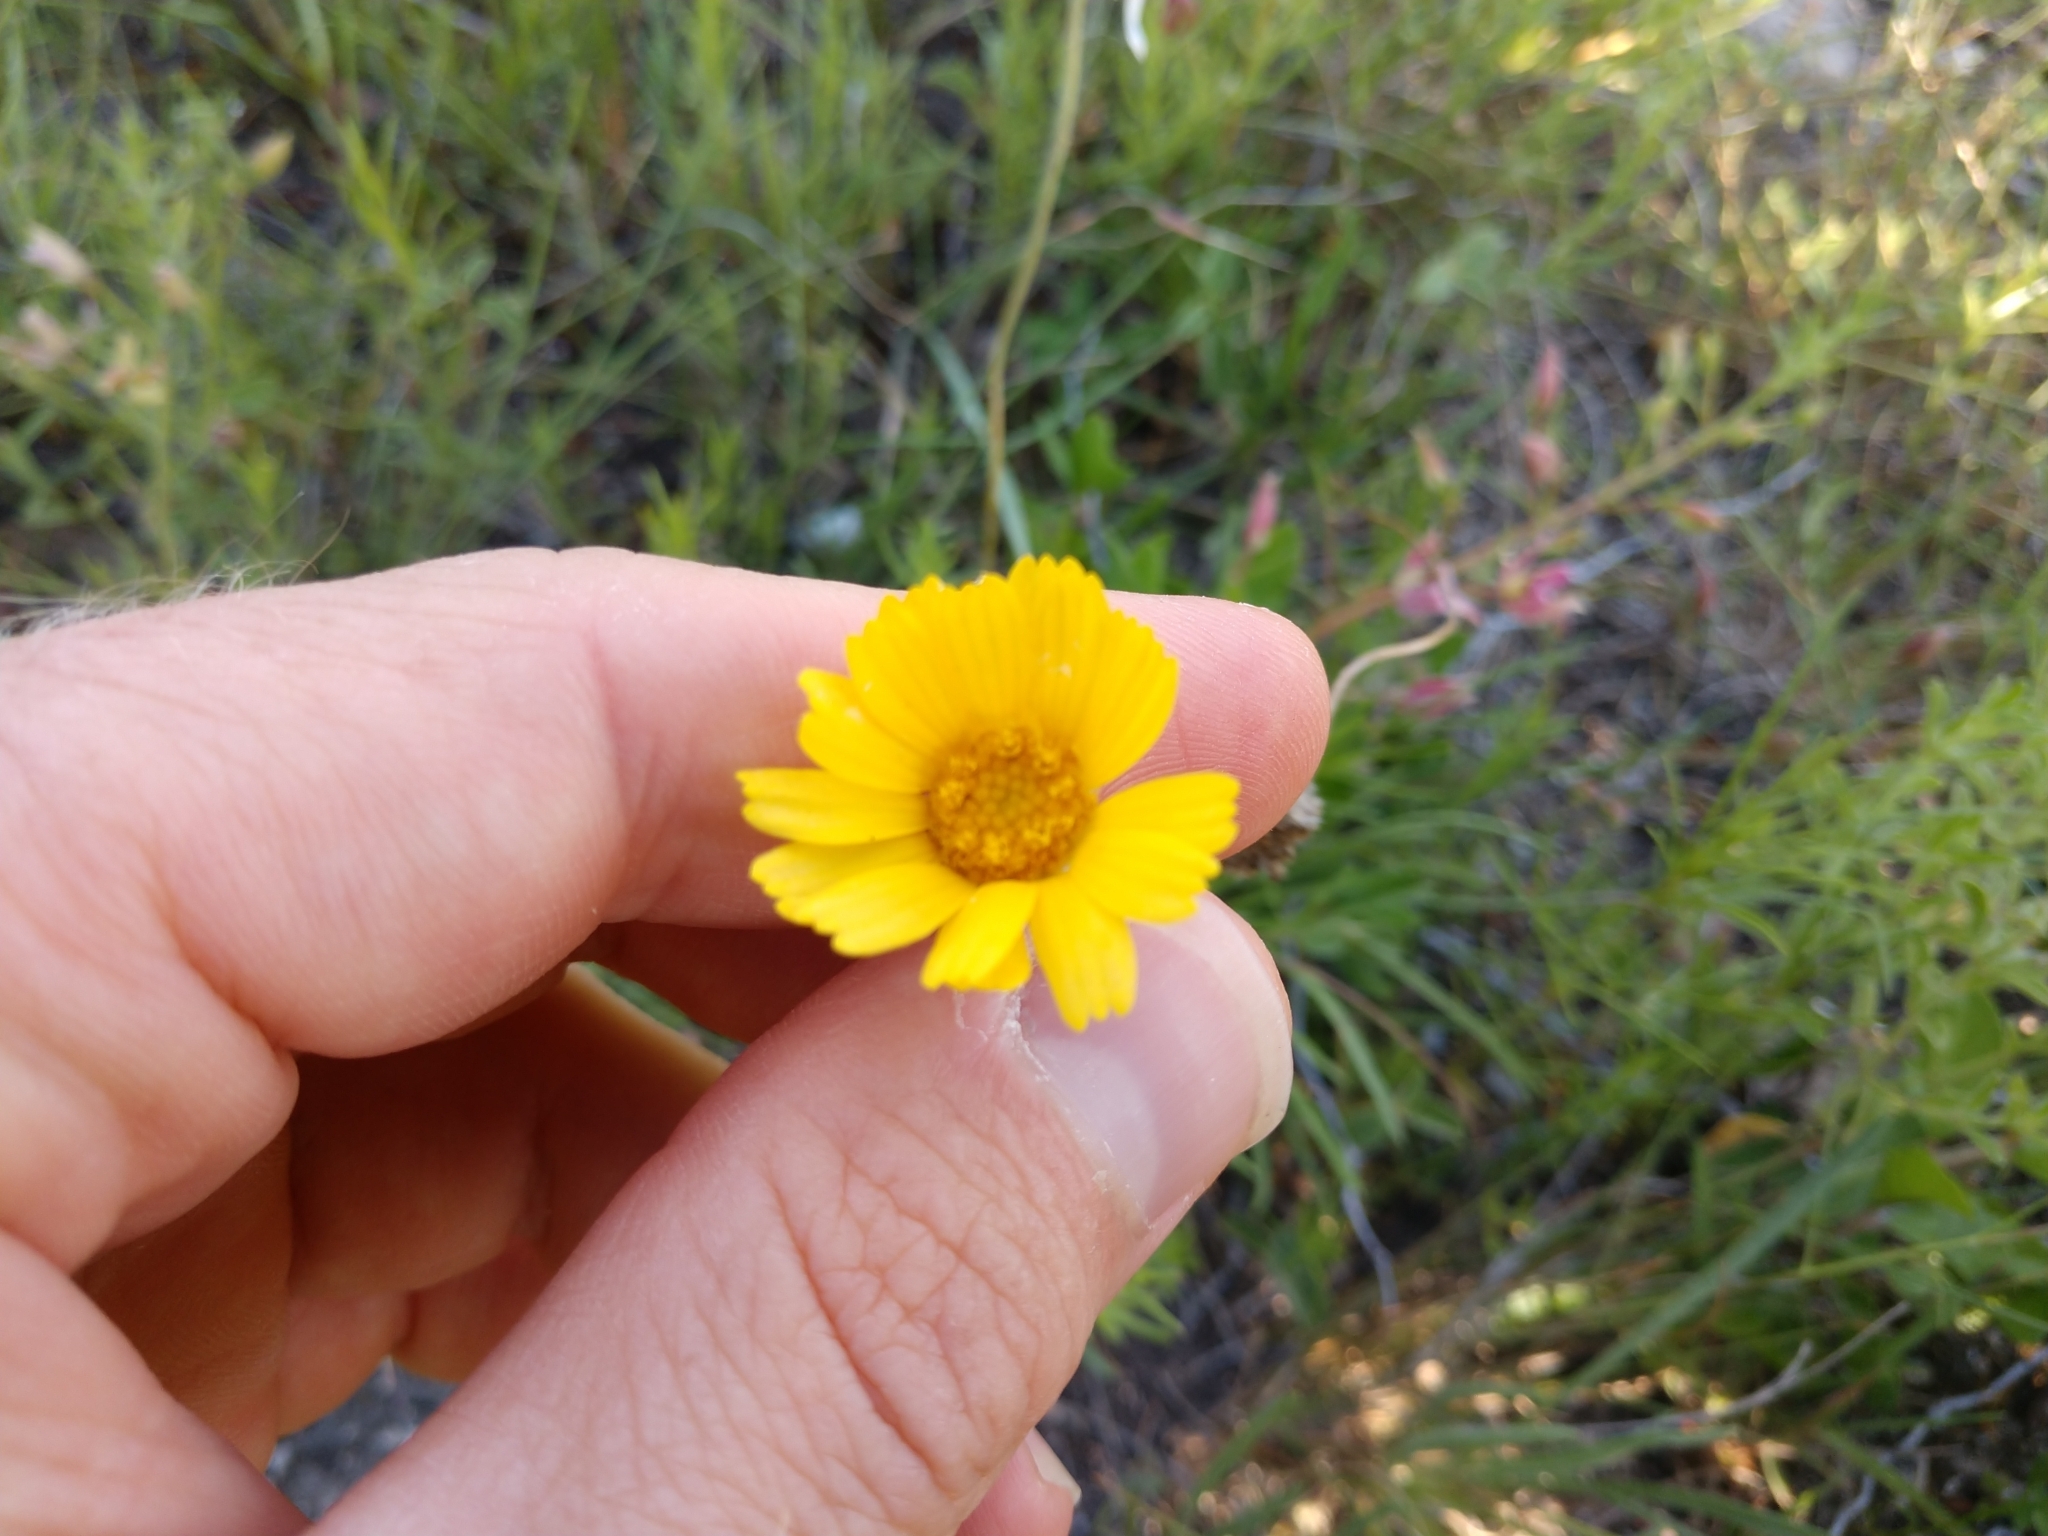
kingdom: Plantae
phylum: Tracheophyta
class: Magnoliopsida
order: Asterales
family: Asteraceae
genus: Tetraneuris
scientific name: Tetraneuris scaposa
